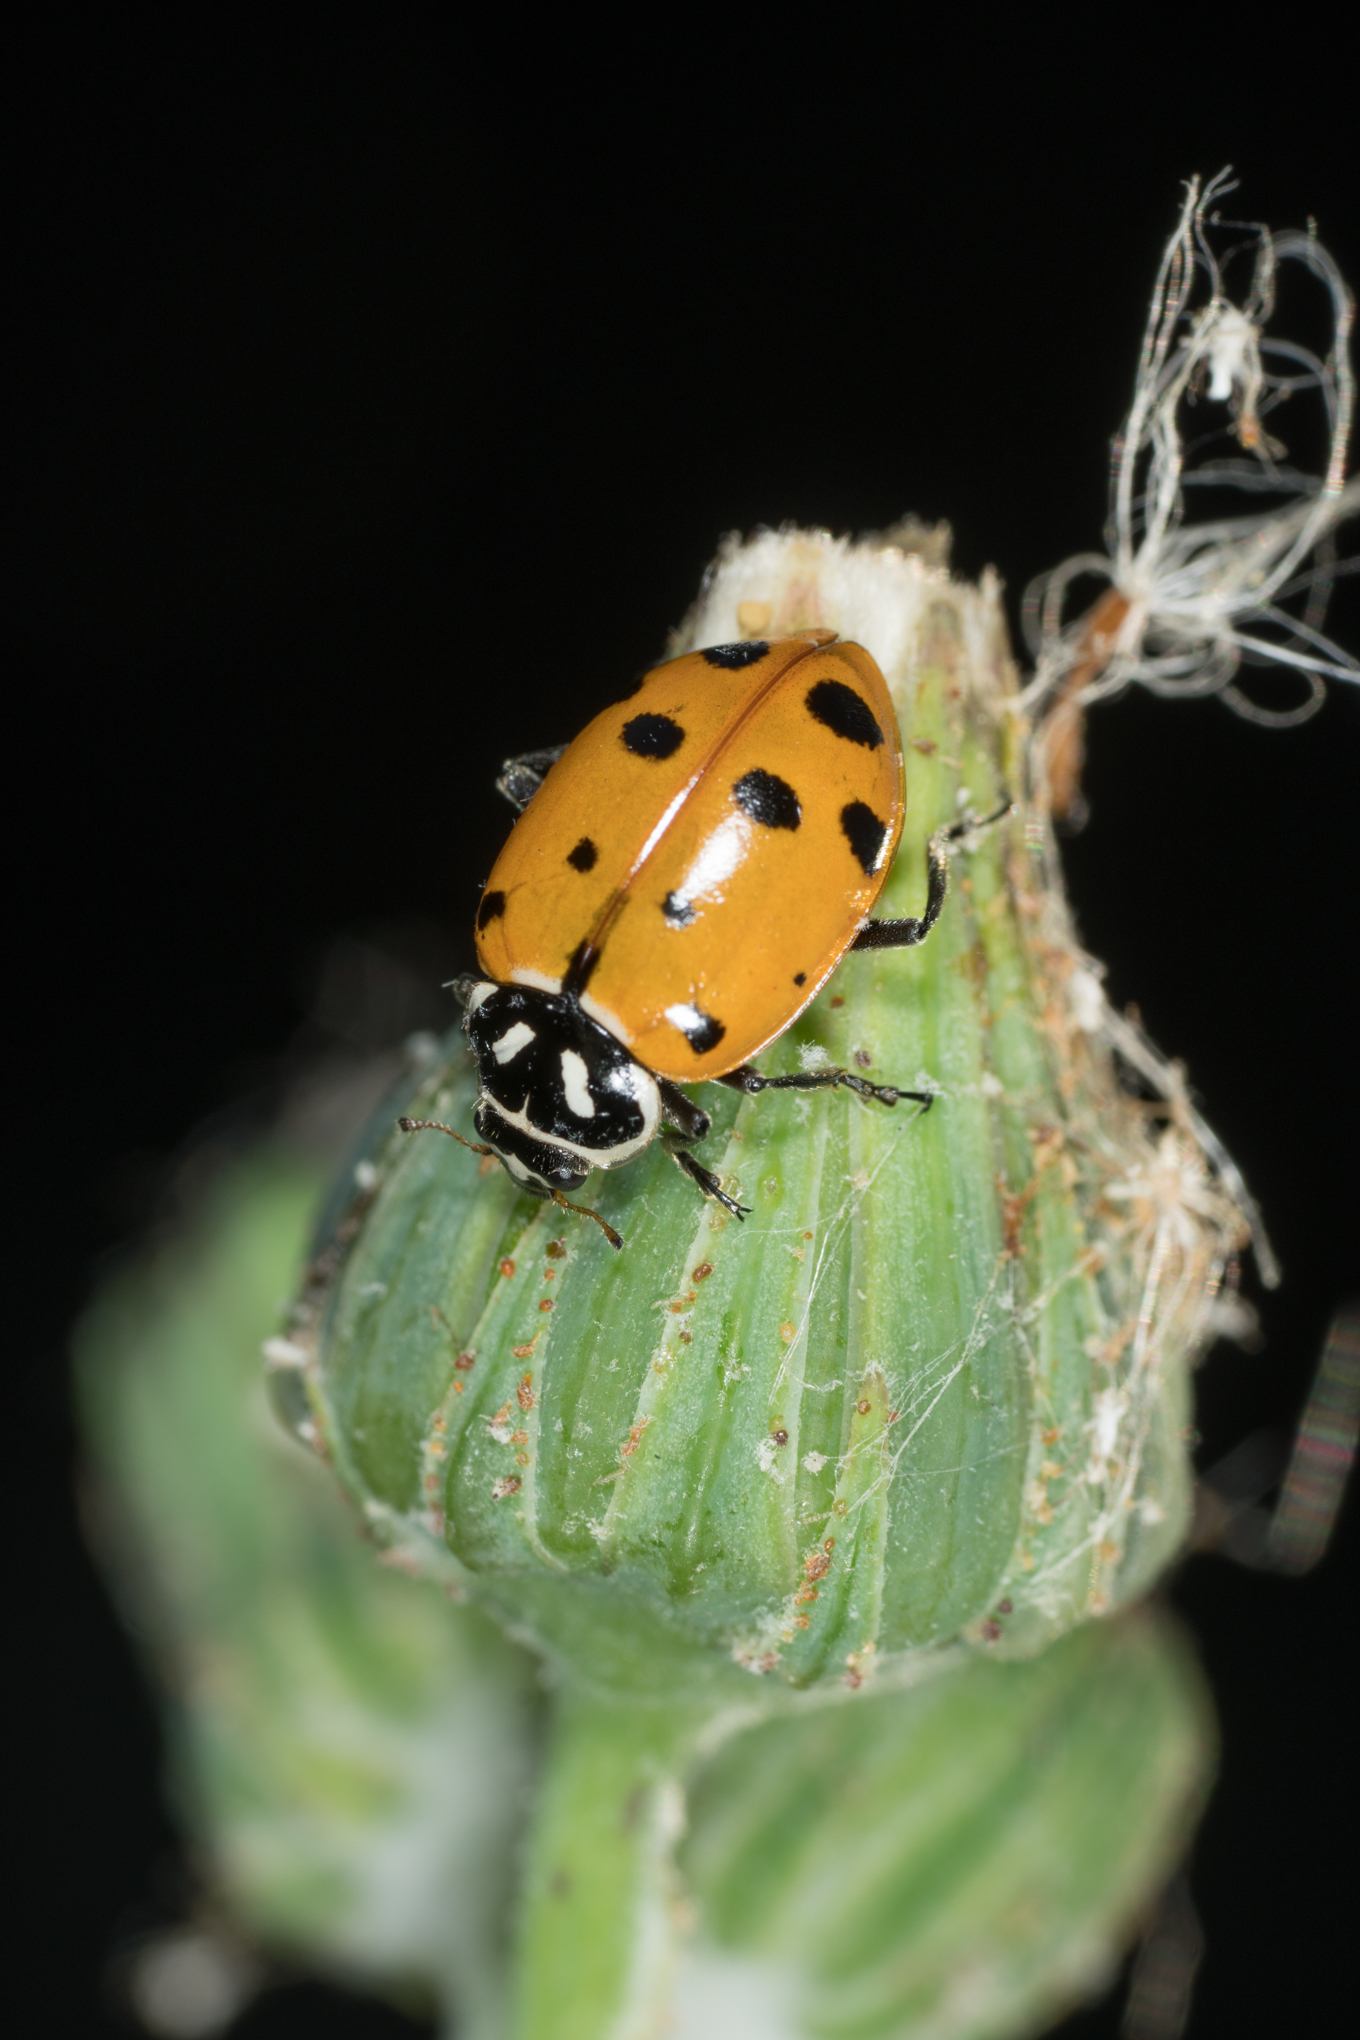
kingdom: Animalia
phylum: Arthropoda
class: Insecta
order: Coleoptera
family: Coccinellidae
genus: Hippodamia
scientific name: Hippodamia convergens
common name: Convergent lady beetle
